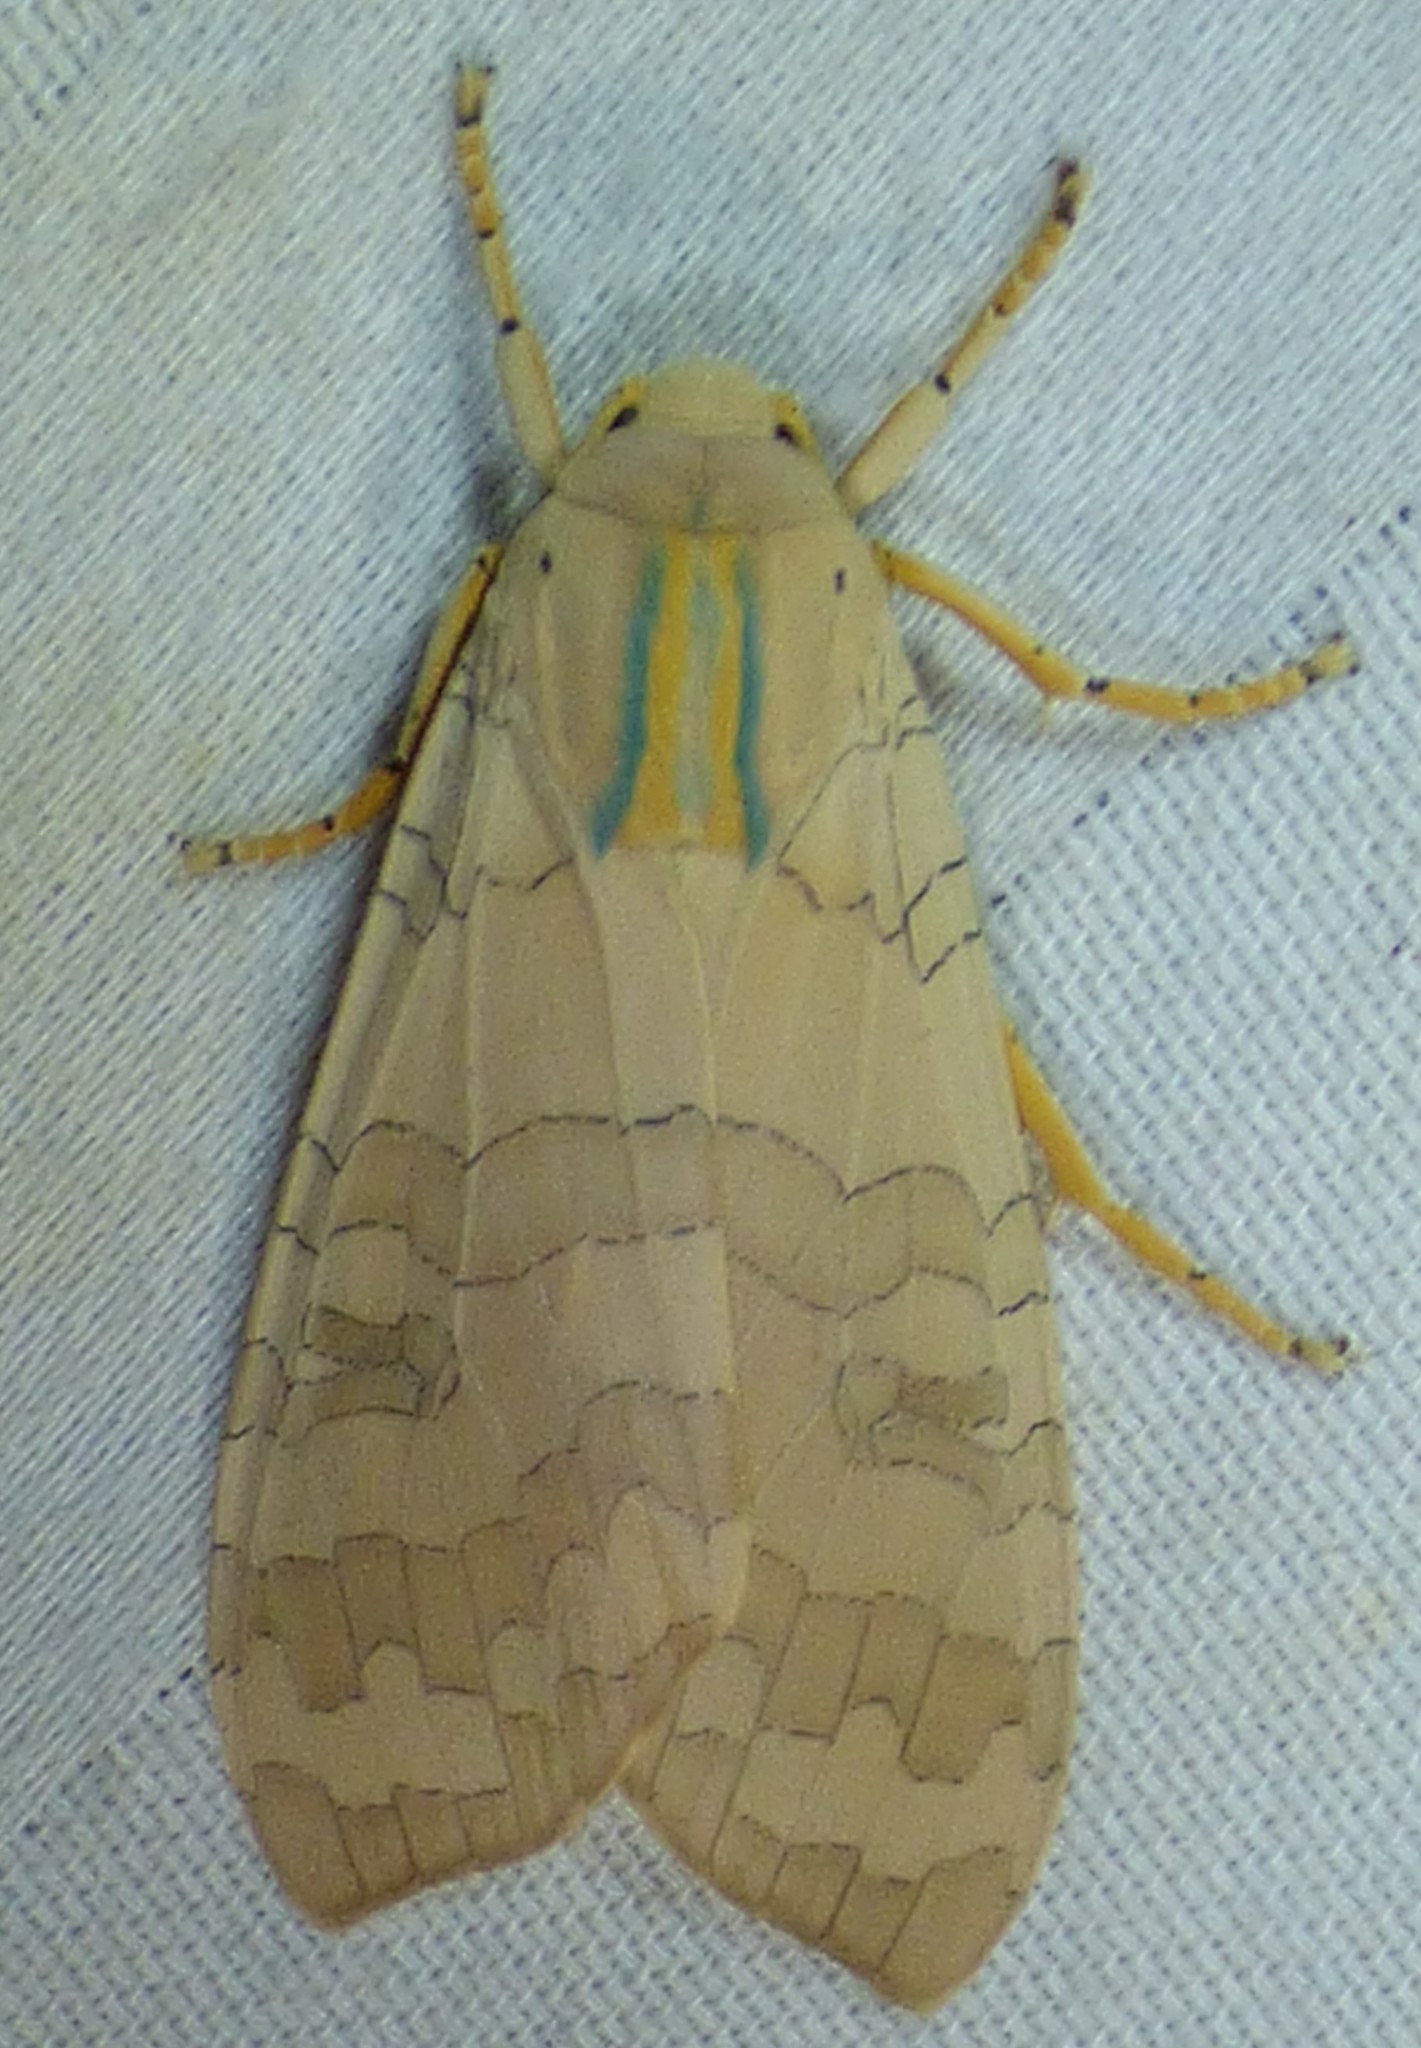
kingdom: Animalia
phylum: Arthropoda
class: Insecta
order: Lepidoptera
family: Erebidae
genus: Halysidota
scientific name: Halysidota
